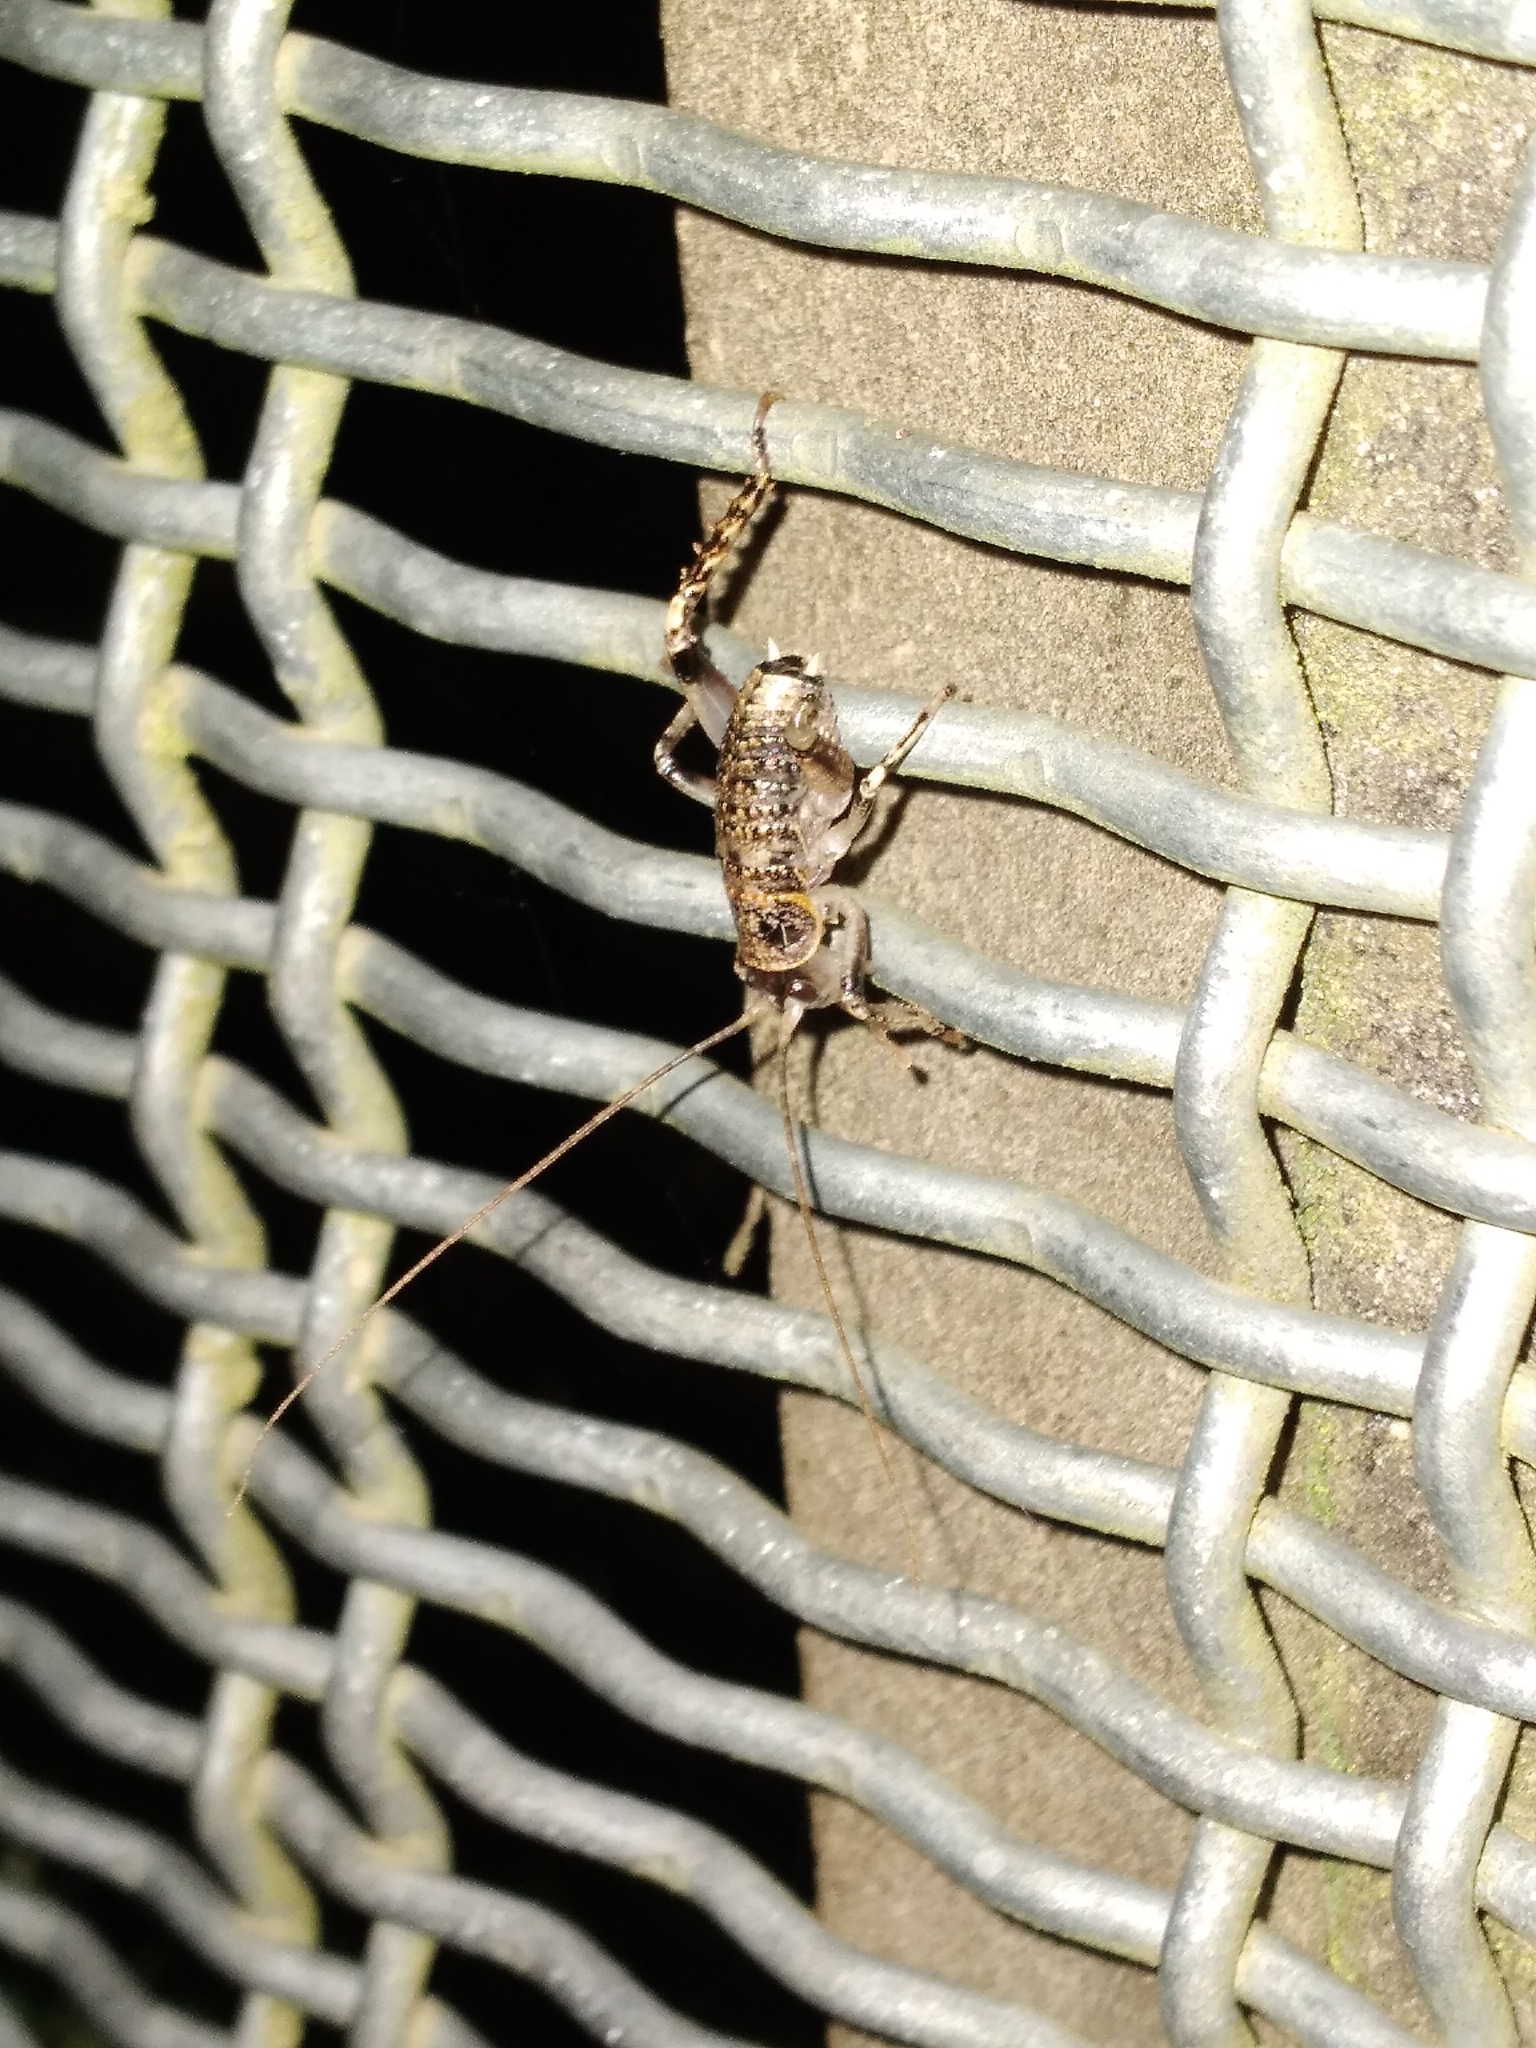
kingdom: Animalia
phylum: Arthropoda
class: Insecta
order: Orthoptera
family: Anostostomatidae
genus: Deinacrida
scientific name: Deinacrida rugosa
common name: Stephens island weta
